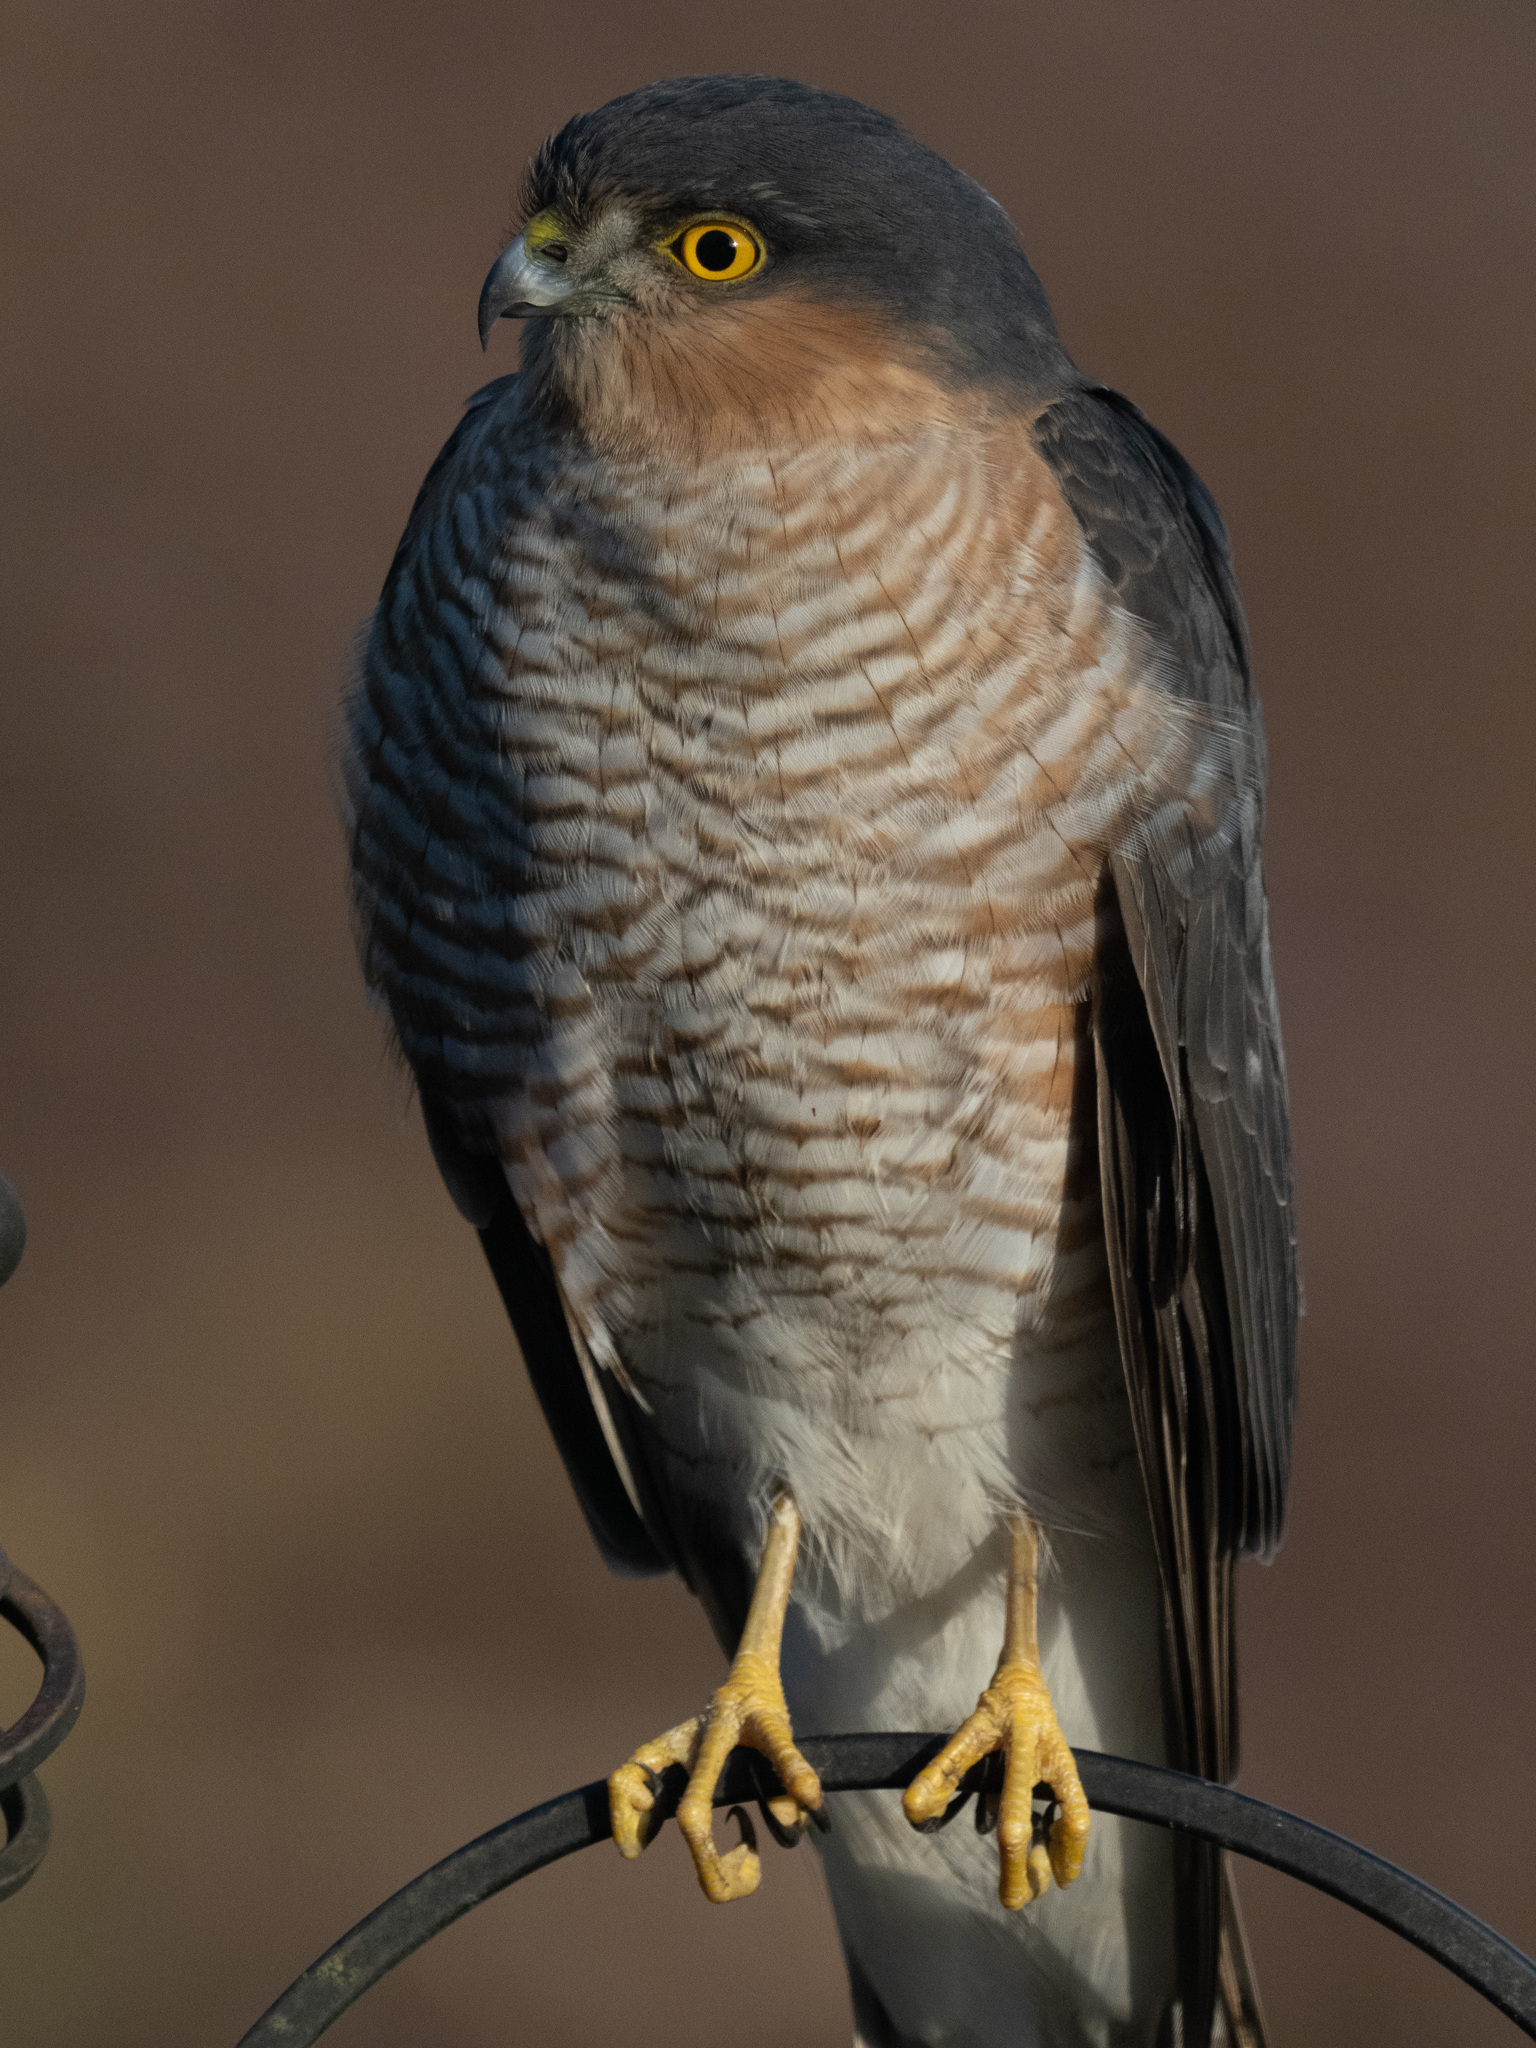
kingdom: Animalia
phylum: Chordata
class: Aves
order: Accipitriformes
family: Accipitridae
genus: Accipiter
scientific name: Accipiter nisus
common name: Eurasian sparrowhawk
